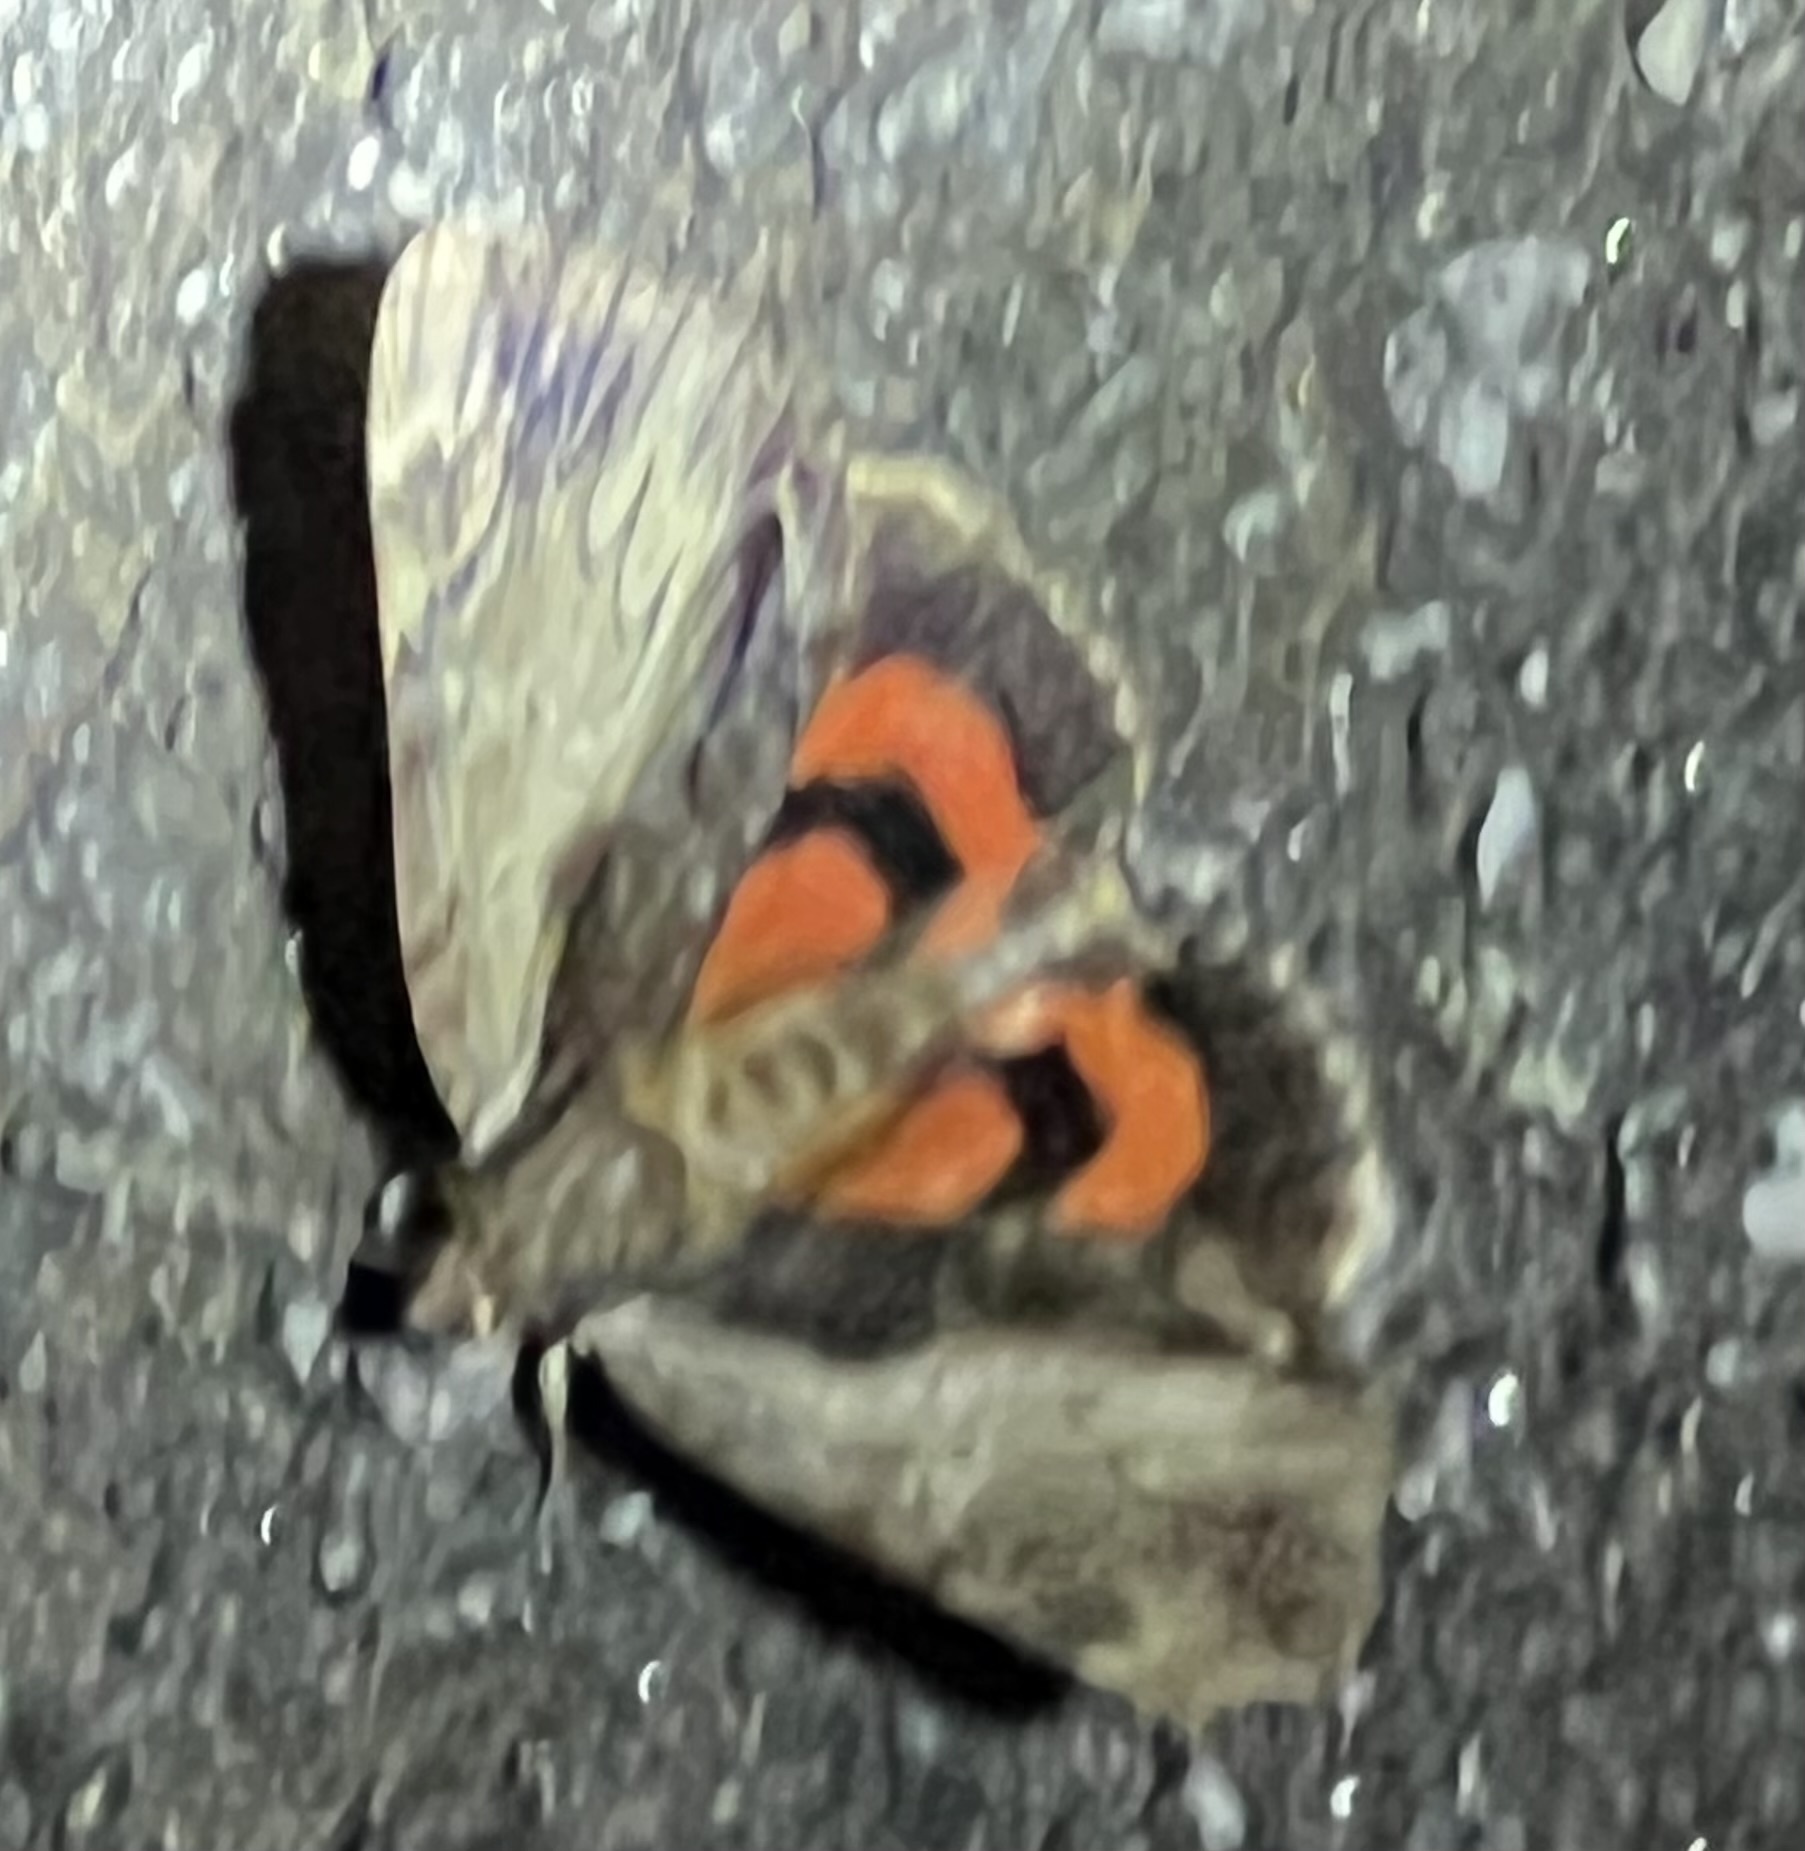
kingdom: Animalia
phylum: Arthropoda
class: Insecta
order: Lepidoptera
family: Erebidae
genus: Catocala
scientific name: Catocala ultronia
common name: Ultronia underwing
